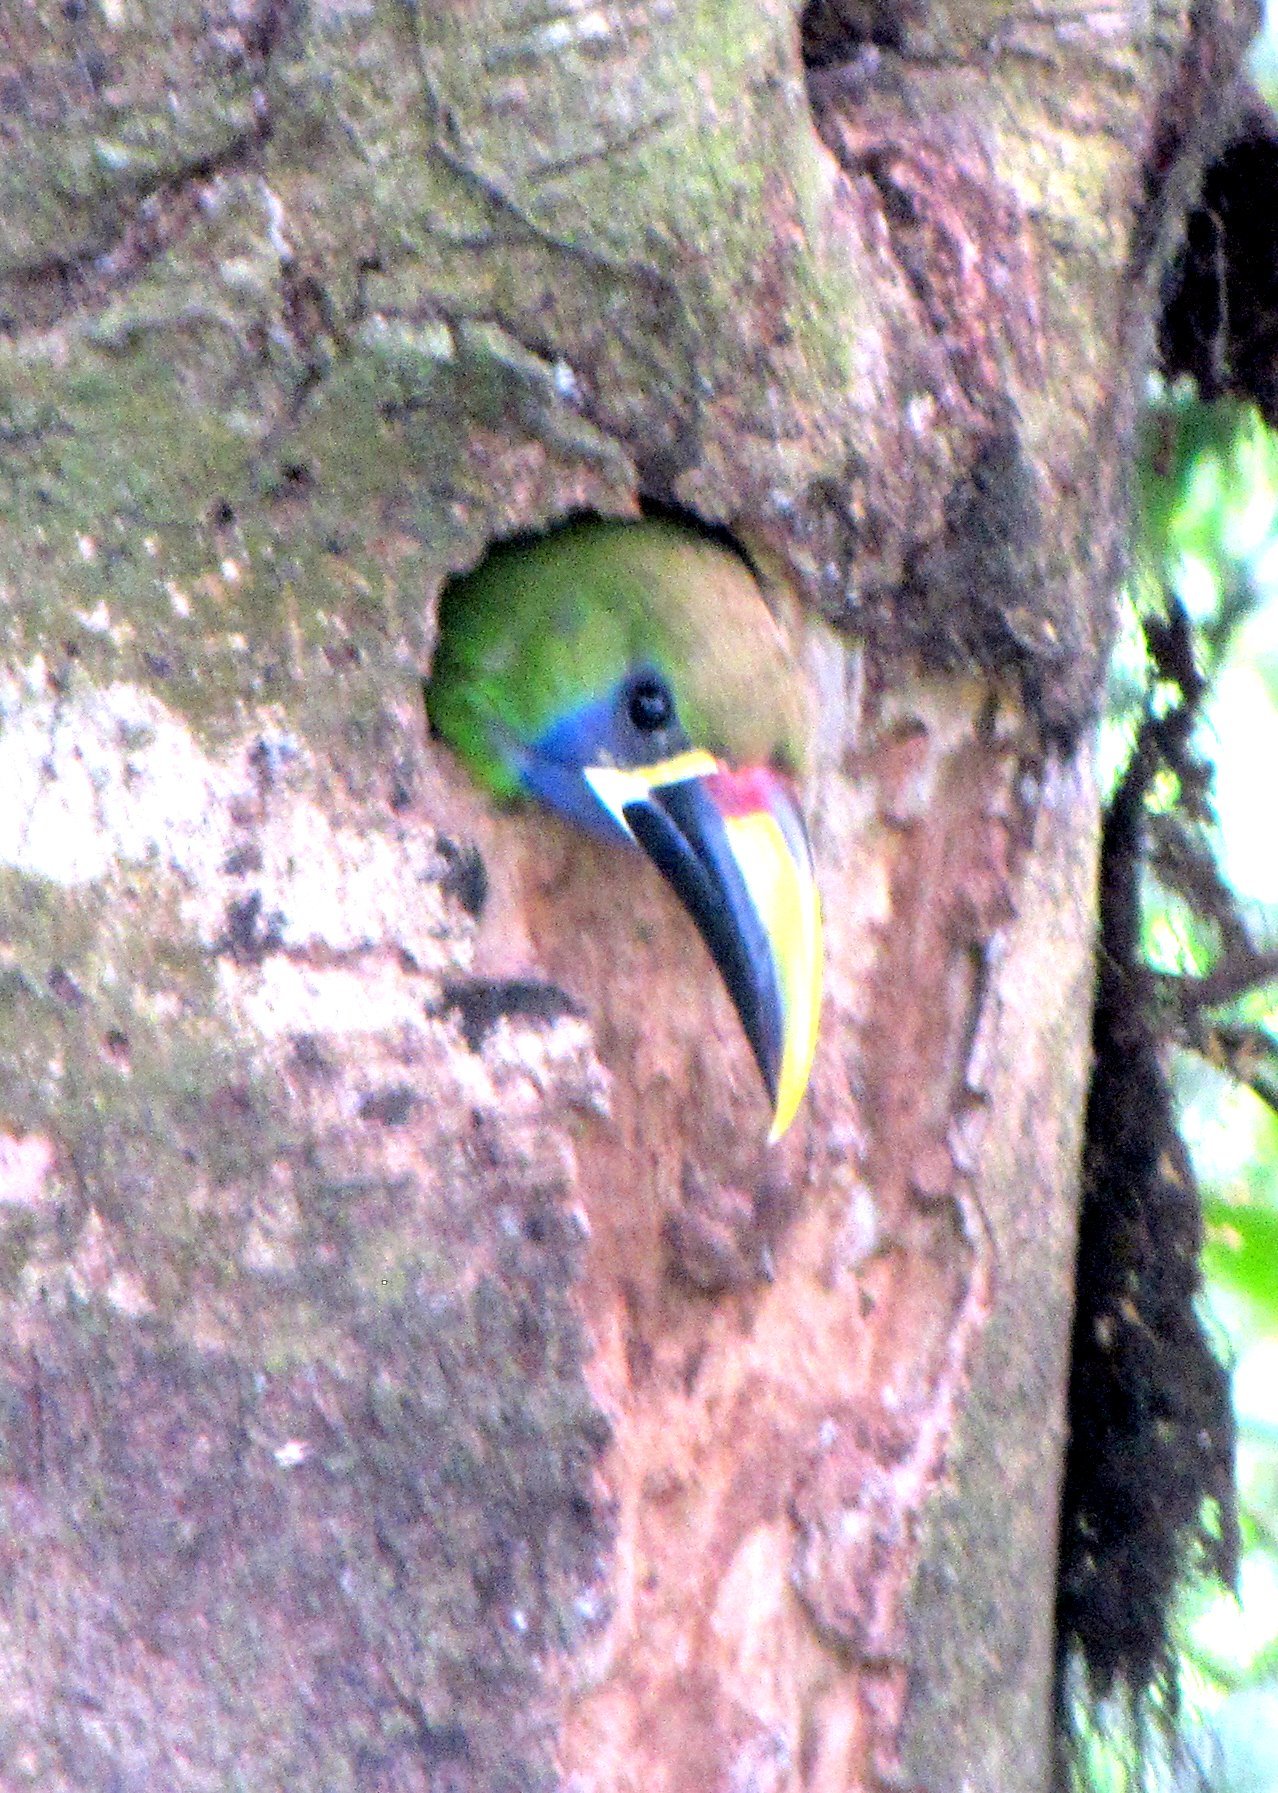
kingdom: Animalia
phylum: Chordata
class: Aves
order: Piciformes
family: Ramphastidae
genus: Aulacorhynchus
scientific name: Aulacorhynchus prasinus
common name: Emerald toucanet
